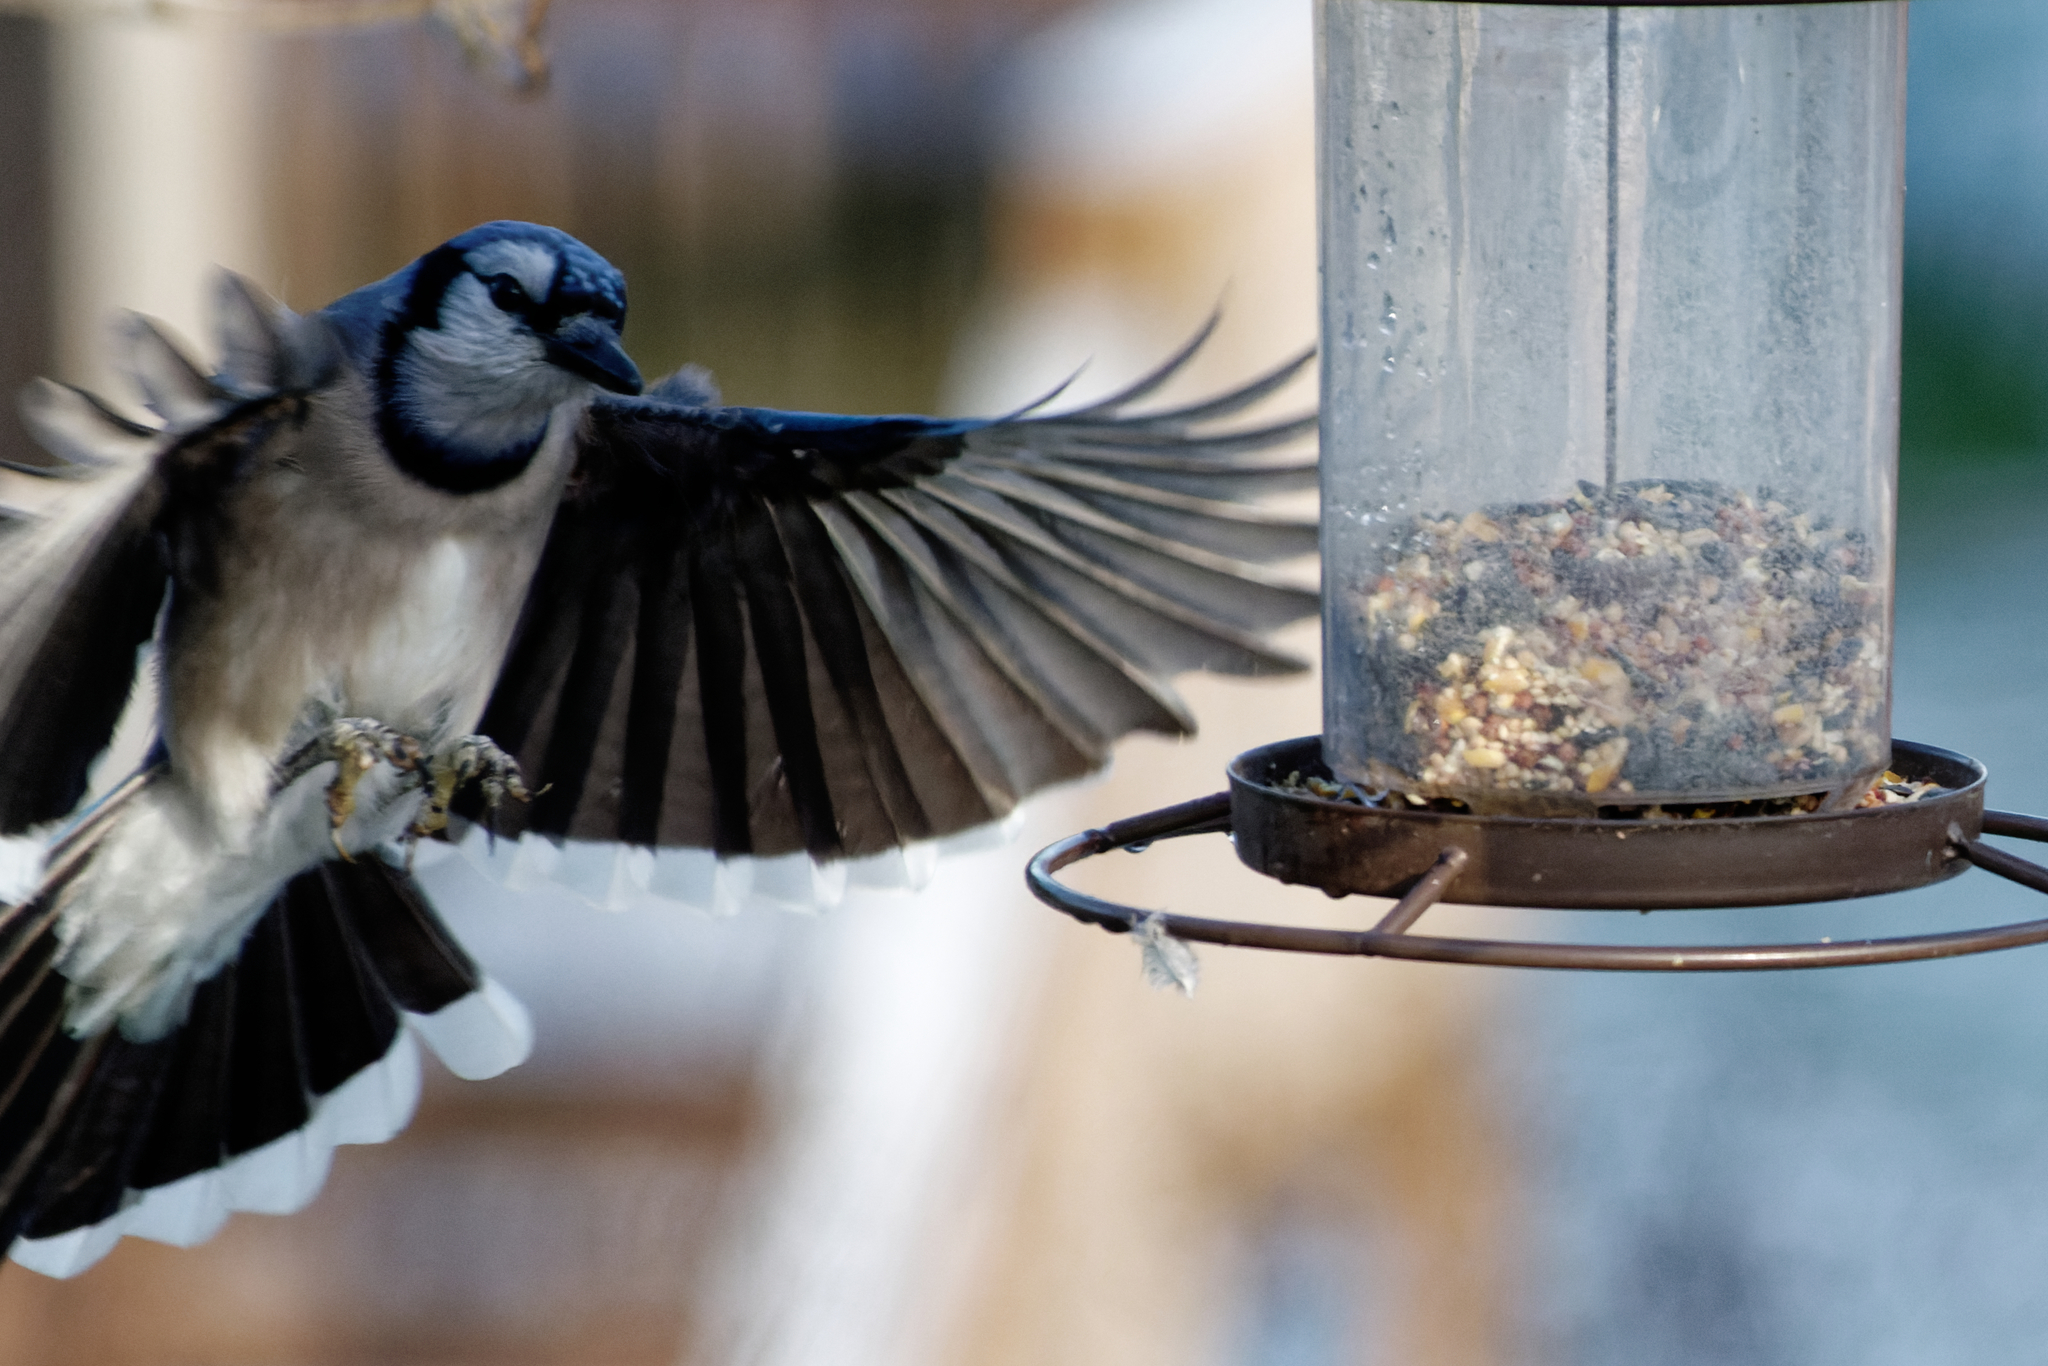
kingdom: Animalia
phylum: Chordata
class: Aves
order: Passeriformes
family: Corvidae
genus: Cyanocitta
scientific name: Cyanocitta cristata
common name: Blue jay
